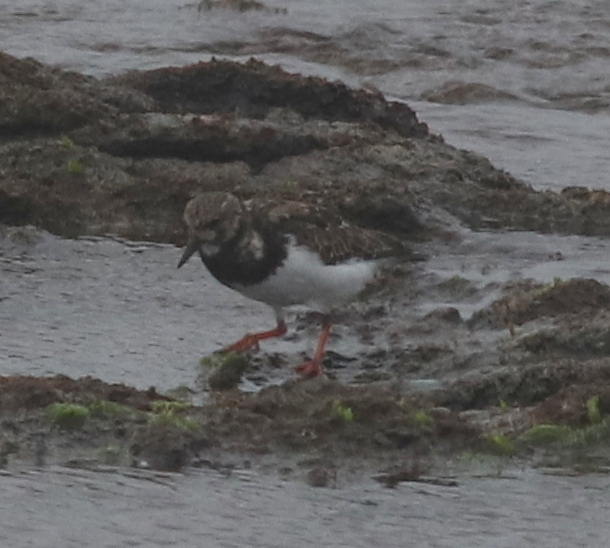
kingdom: Animalia
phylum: Chordata
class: Aves
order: Charadriiformes
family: Scolopacidae
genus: Arenaria
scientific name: Arenaria interpres
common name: Ruddy turnstone
